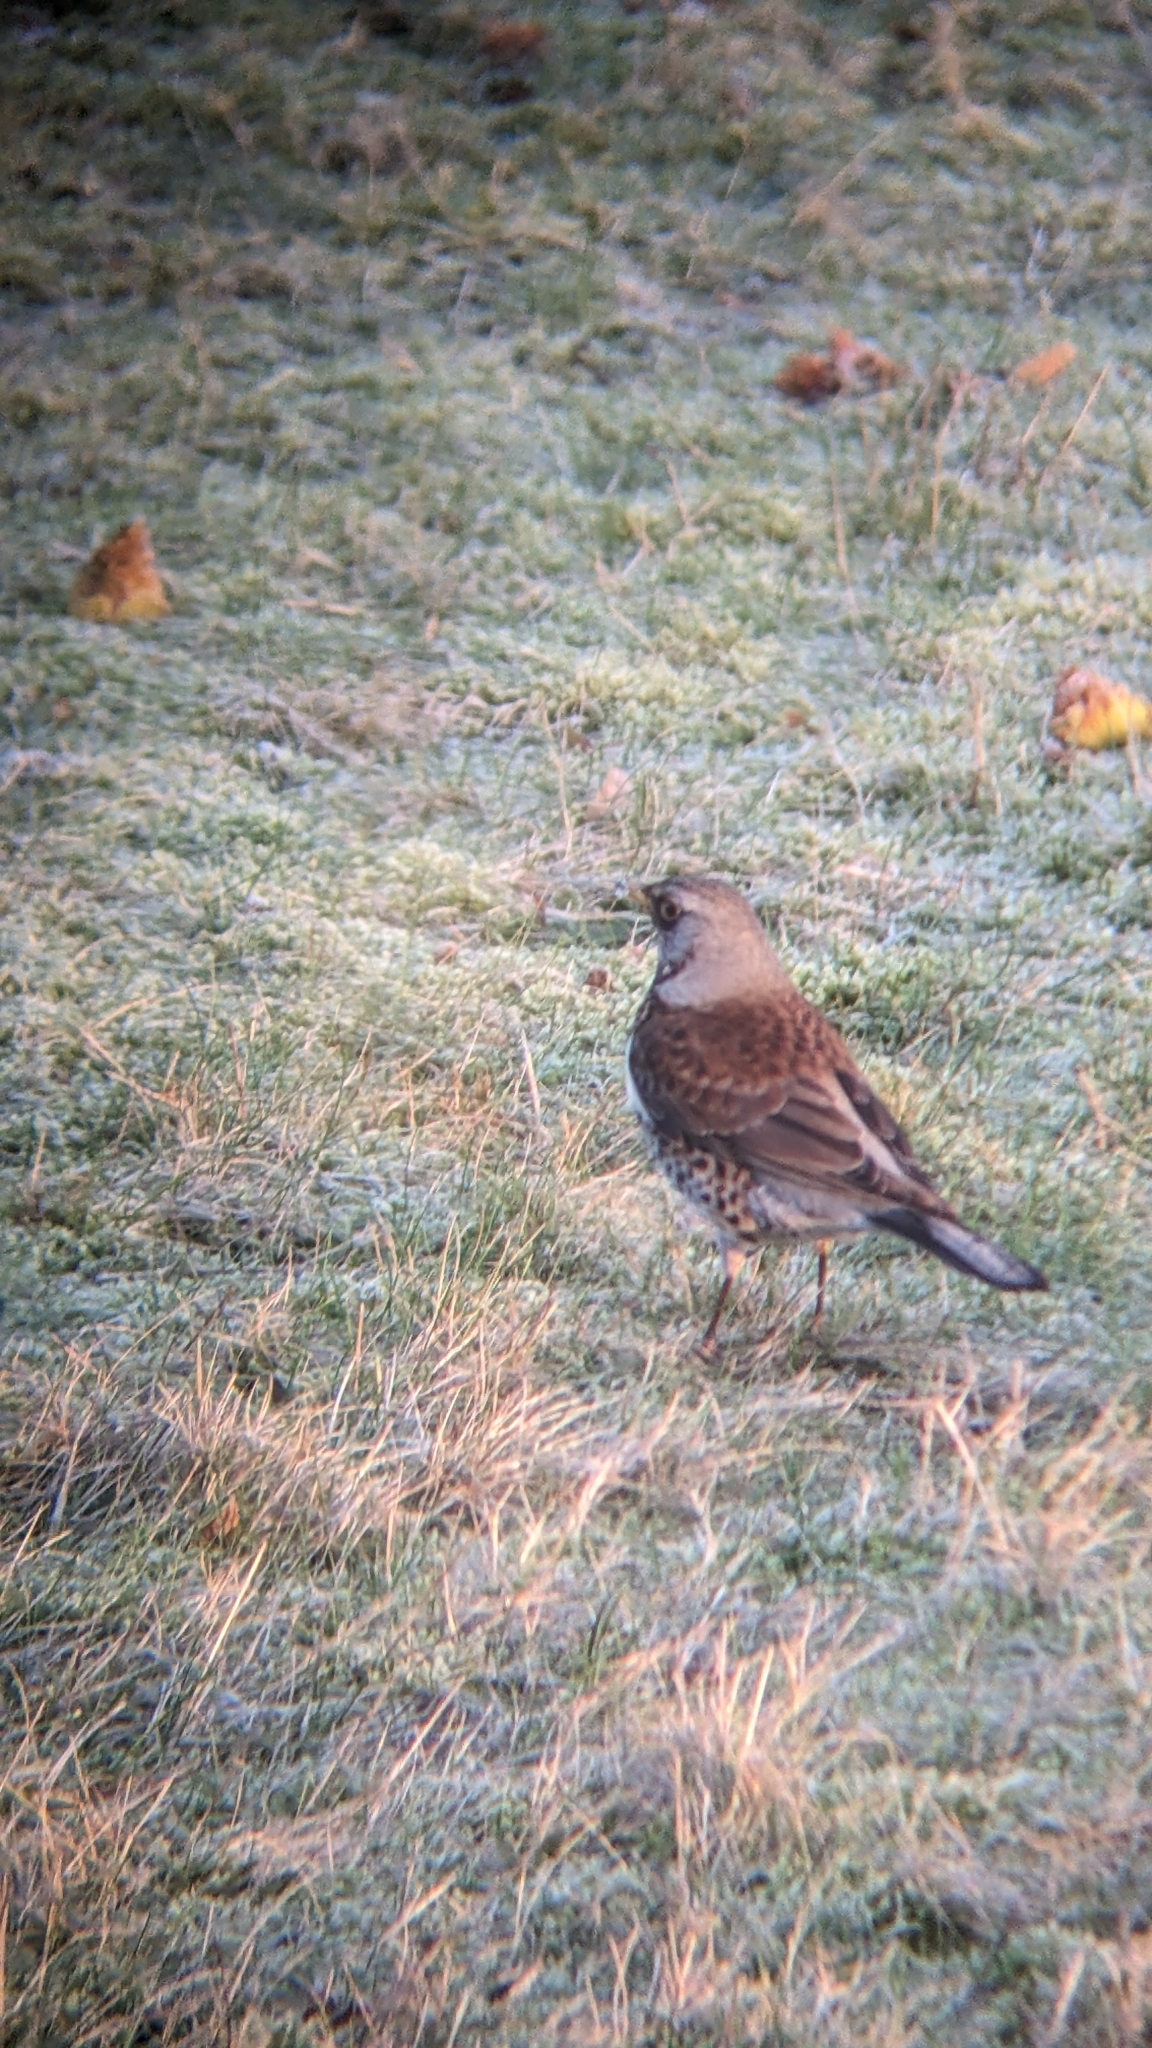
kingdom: Animalia
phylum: Chordata
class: Aves
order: Passeriformes
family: Turdidae
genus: Turdus
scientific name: Turdus pilaris
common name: Fieldfare
